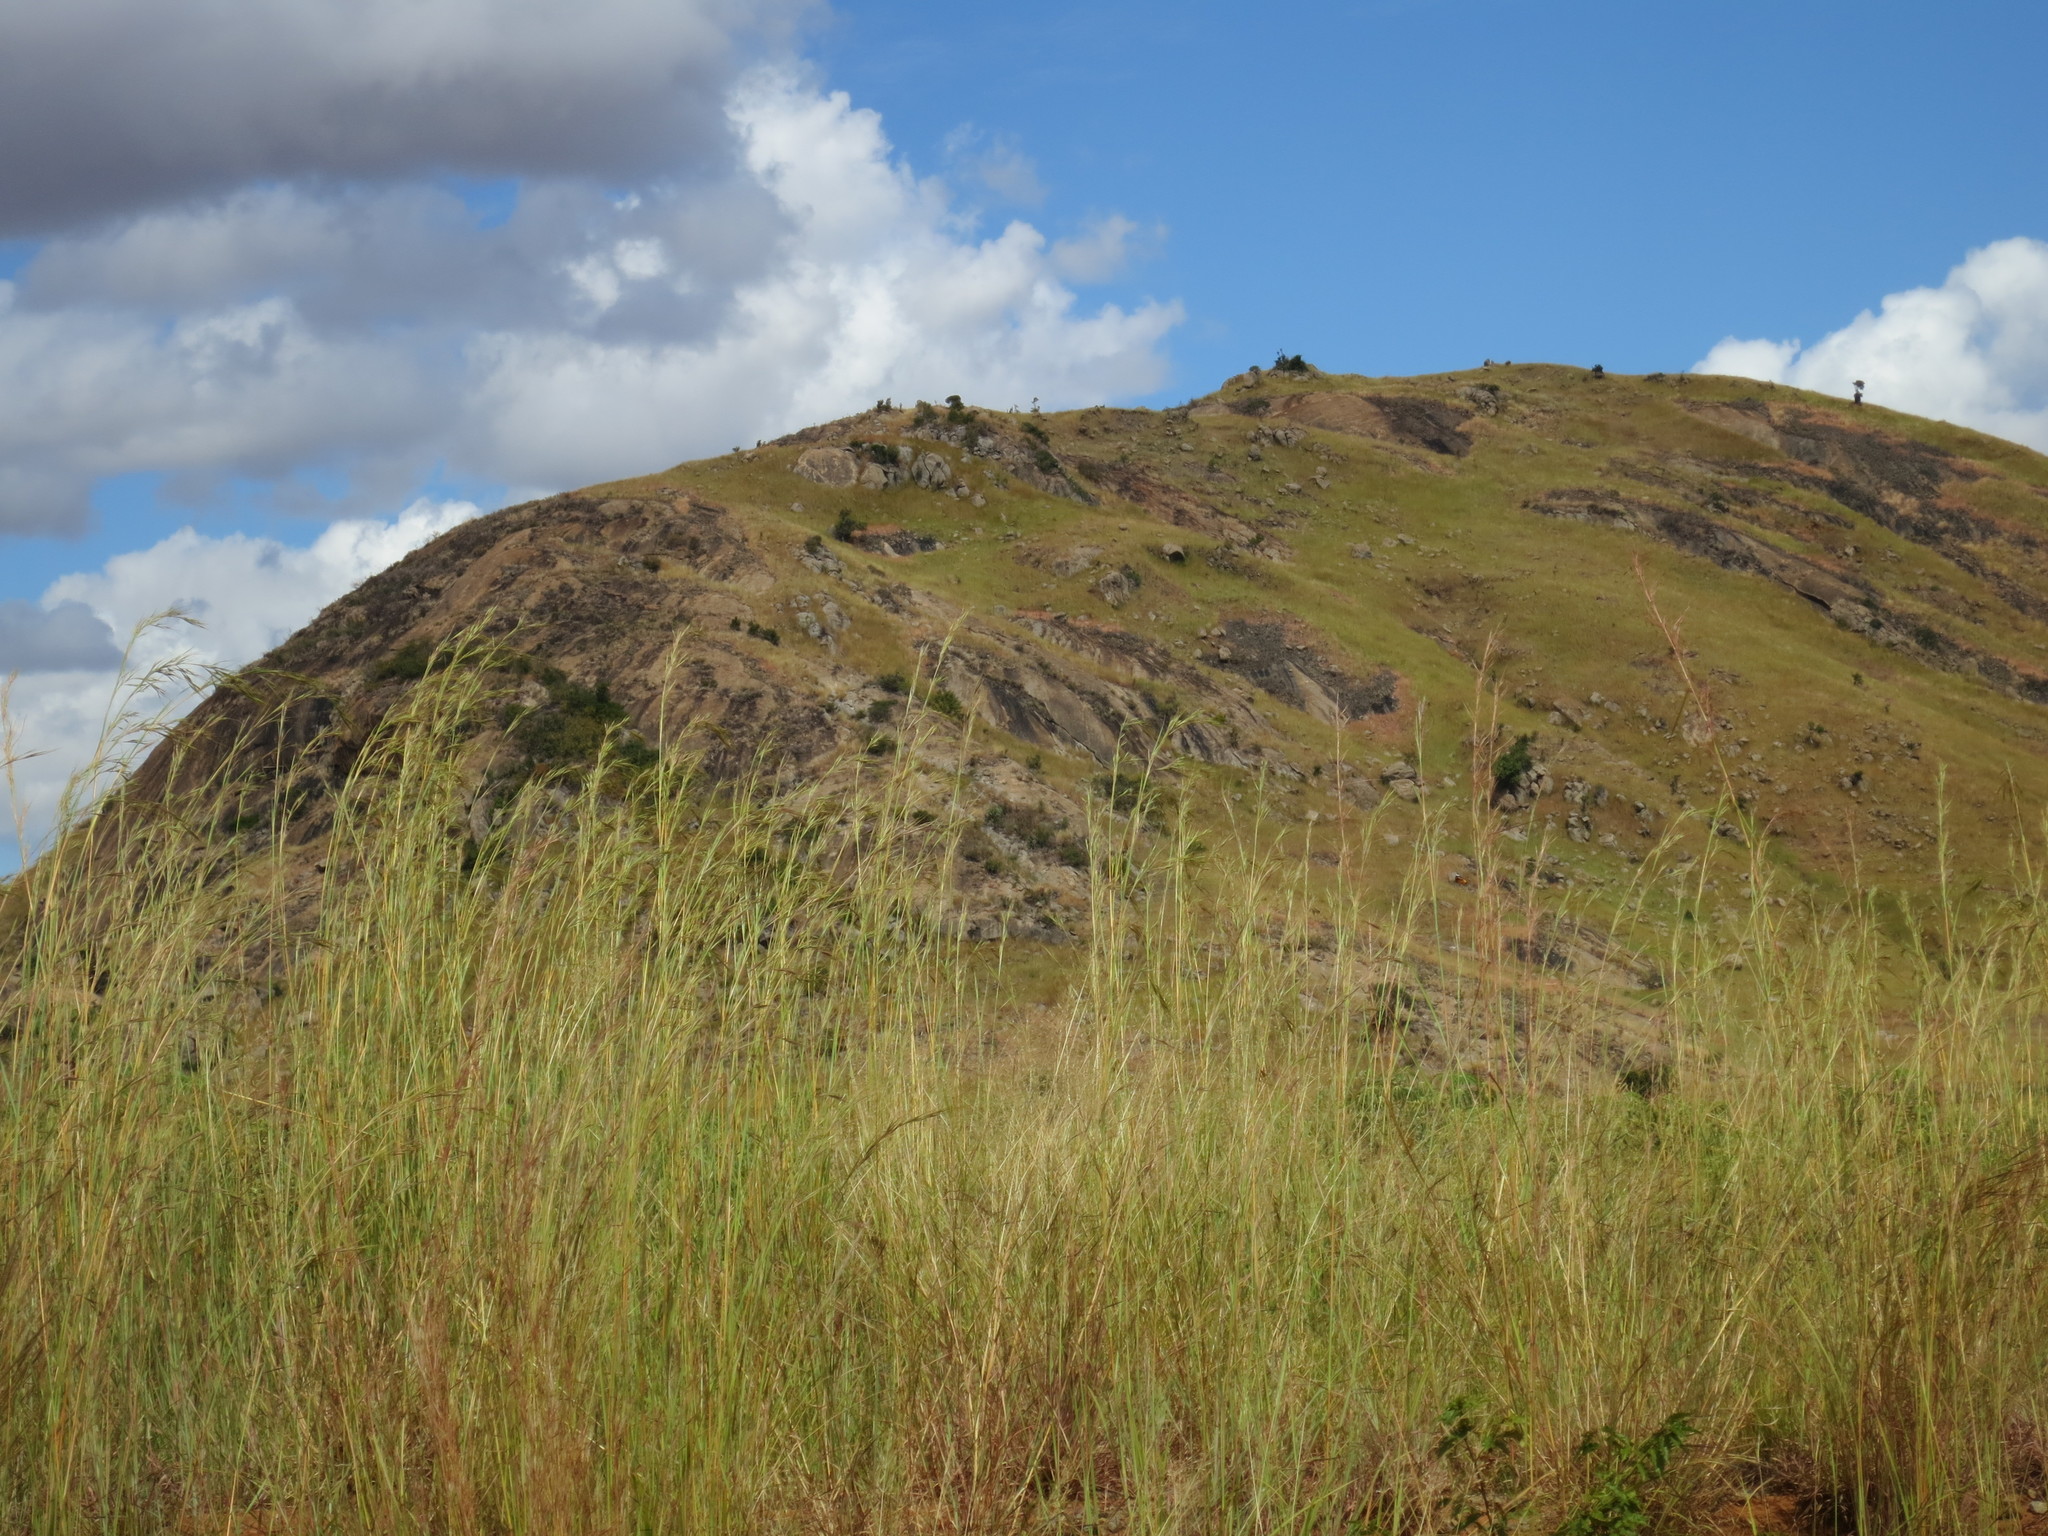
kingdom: Plantae
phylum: Tracheophyta
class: Liliopsida
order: Poales
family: Poaceae
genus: Hyperthelia
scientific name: Hyperthelia dissoluta
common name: Yellow thatching grass
